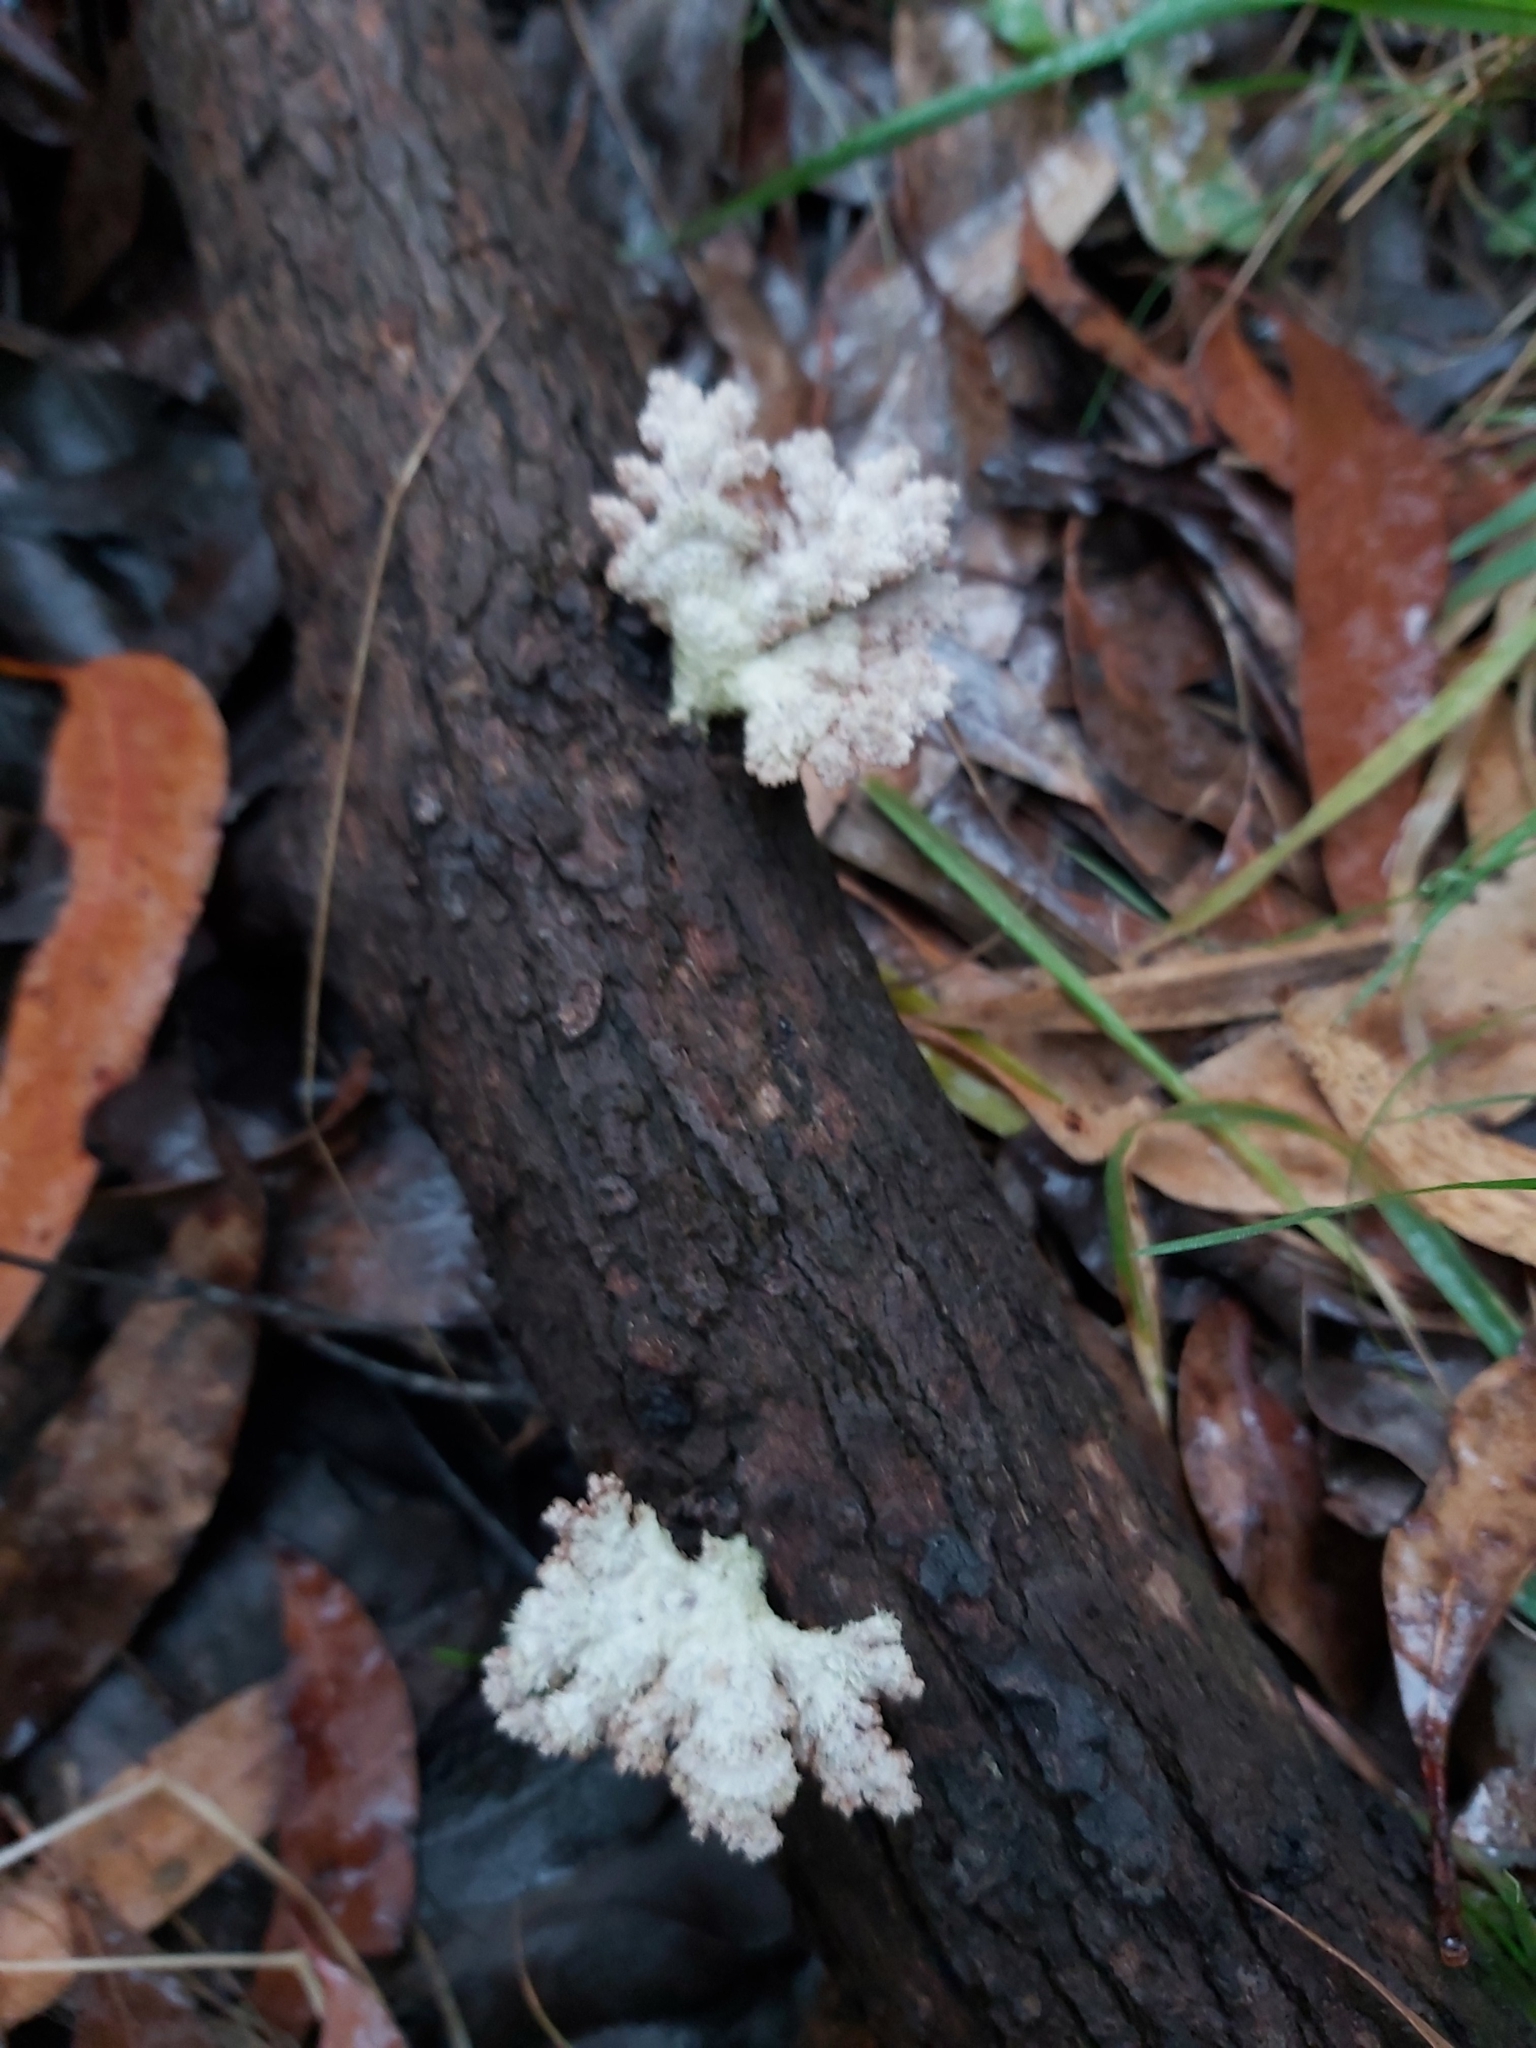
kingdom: Fungi
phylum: Basidiomycota
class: Agaricomycetes
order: Agaricales
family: Schizophyllaceae
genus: Schizophyllum
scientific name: Schizophyllum commune
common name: Common porecrust
